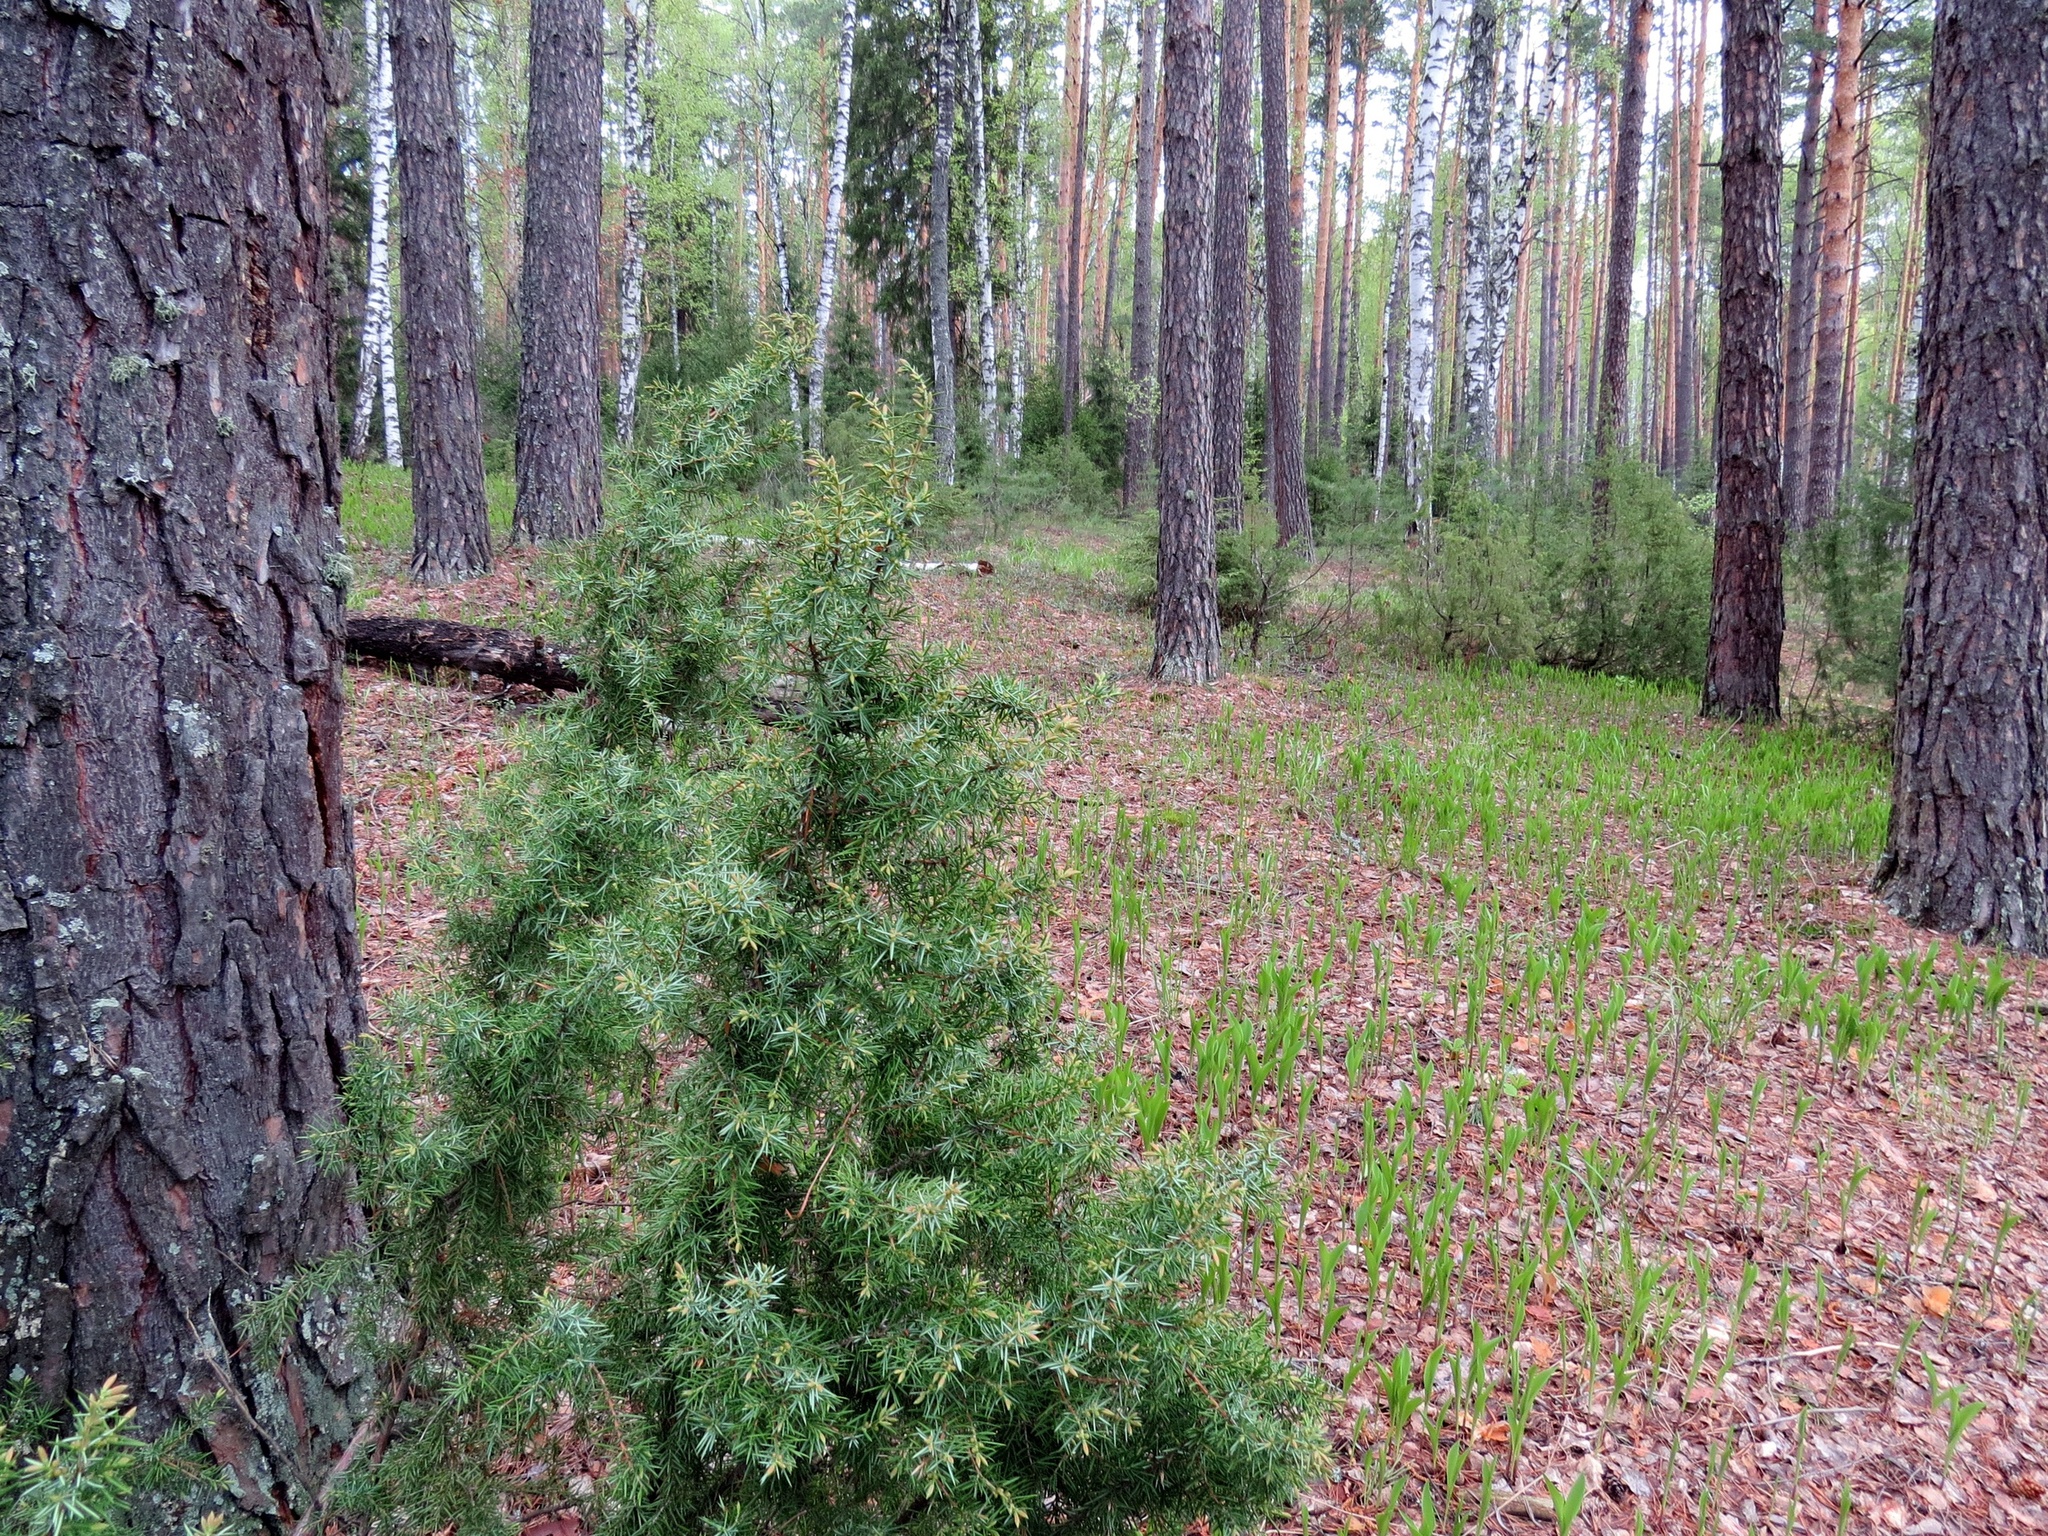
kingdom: Plantae
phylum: Tracheophyta
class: Pinopsida
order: Pinales
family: Cupressaceae
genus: Juniperus
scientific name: Juniperus communis
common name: Common juniper
